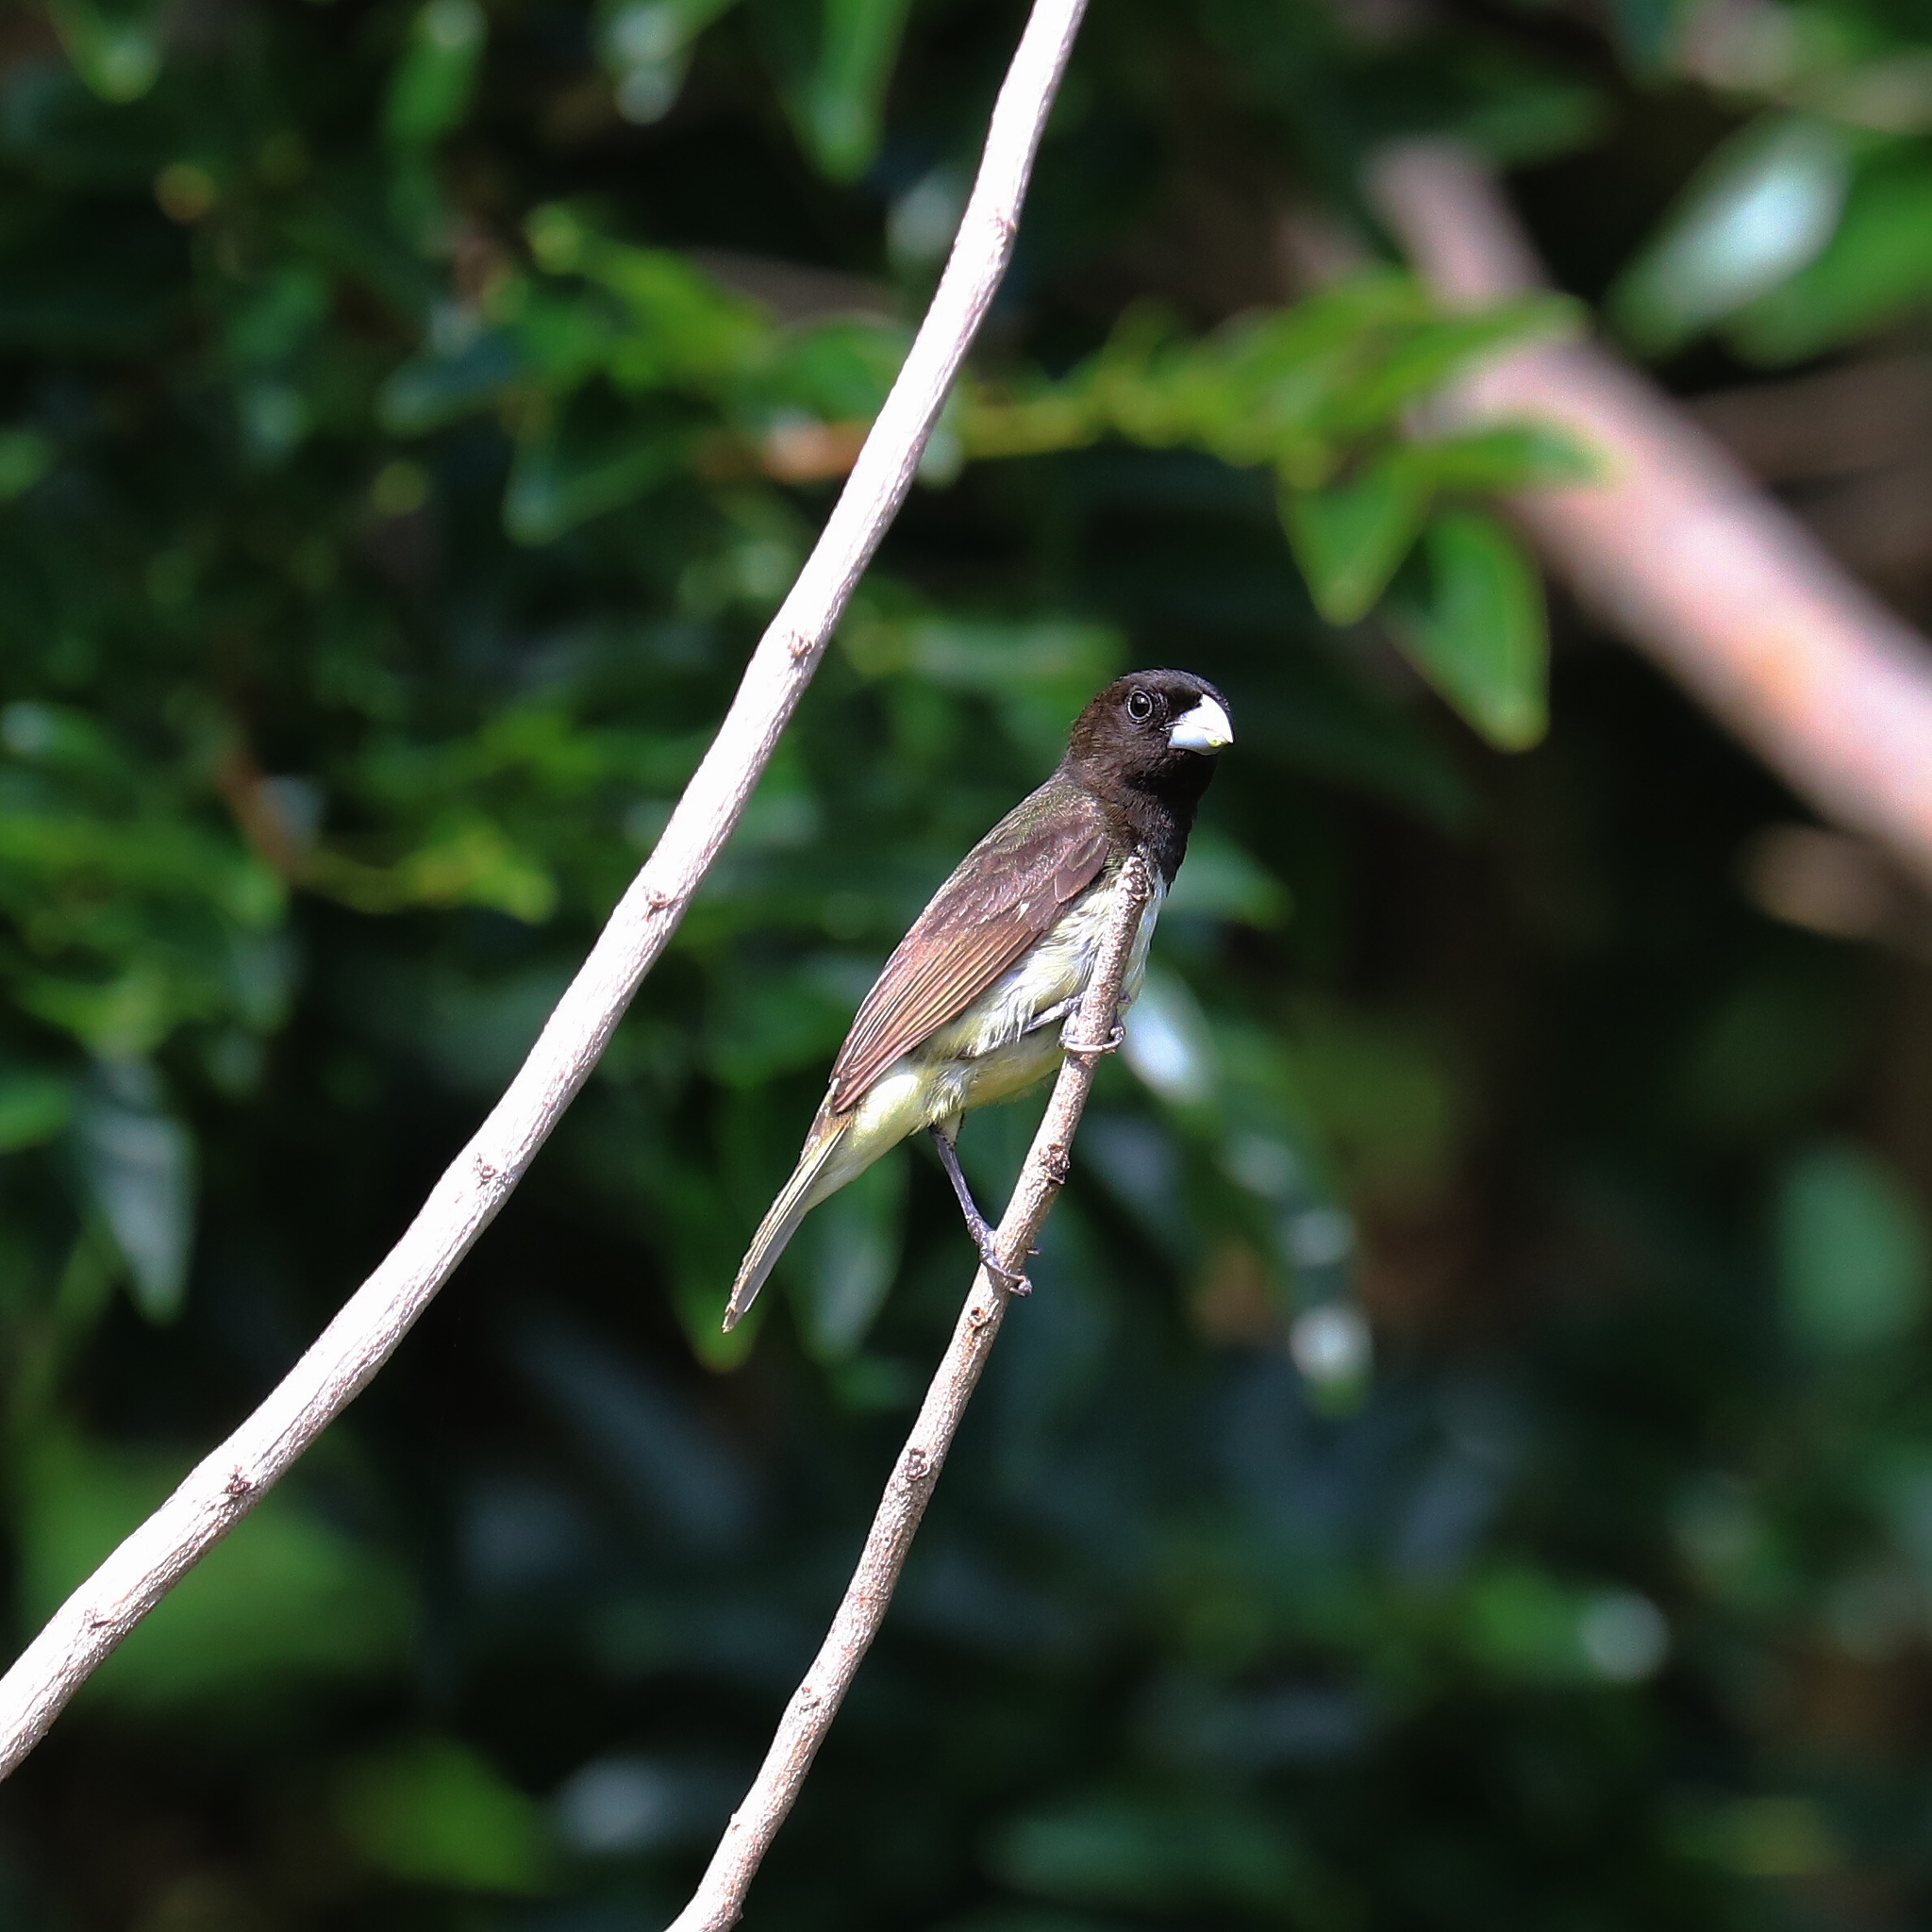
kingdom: Animalia
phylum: Chordata
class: Aves
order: Passeriformes
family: Thraupidae
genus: Sporophila
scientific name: Sporophila nigricollis
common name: Yellow-bellied seedeater
